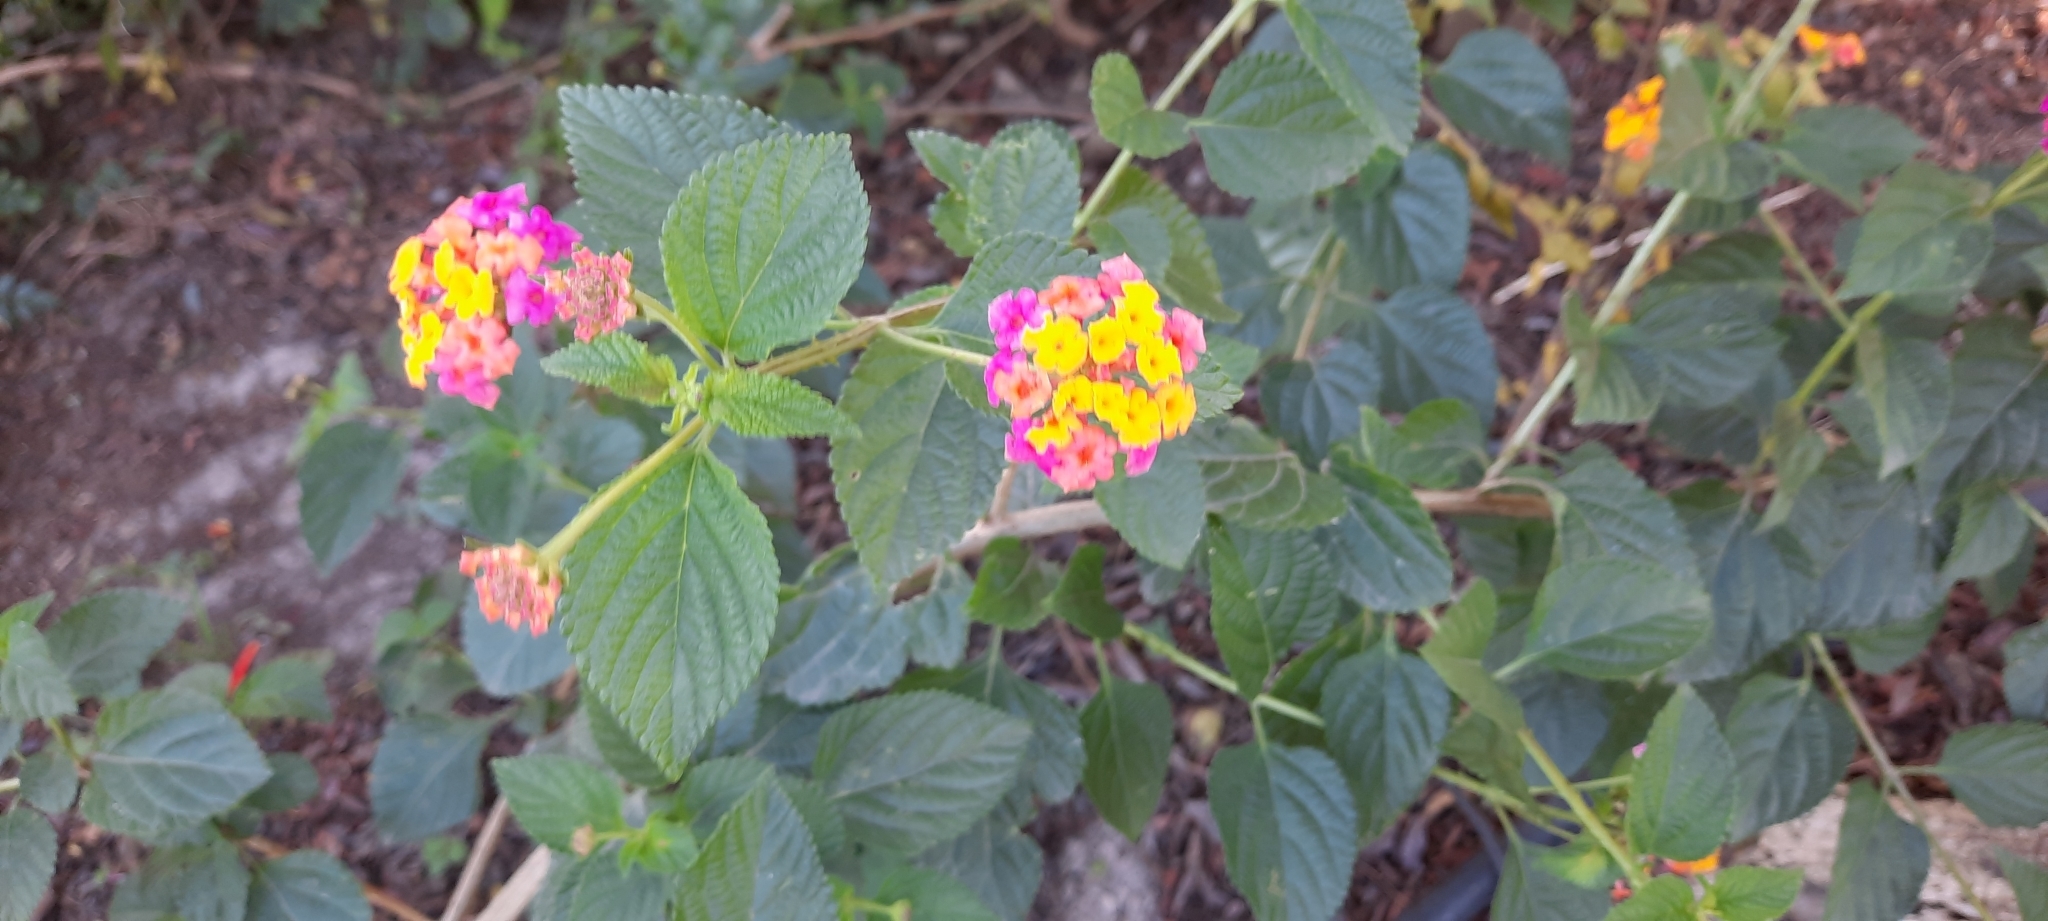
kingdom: Plantae
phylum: Tracheophyta
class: Magnoliopsida
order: Lamiales
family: Verbenaceae
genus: Lantana
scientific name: Lantana camara
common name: Lantana
